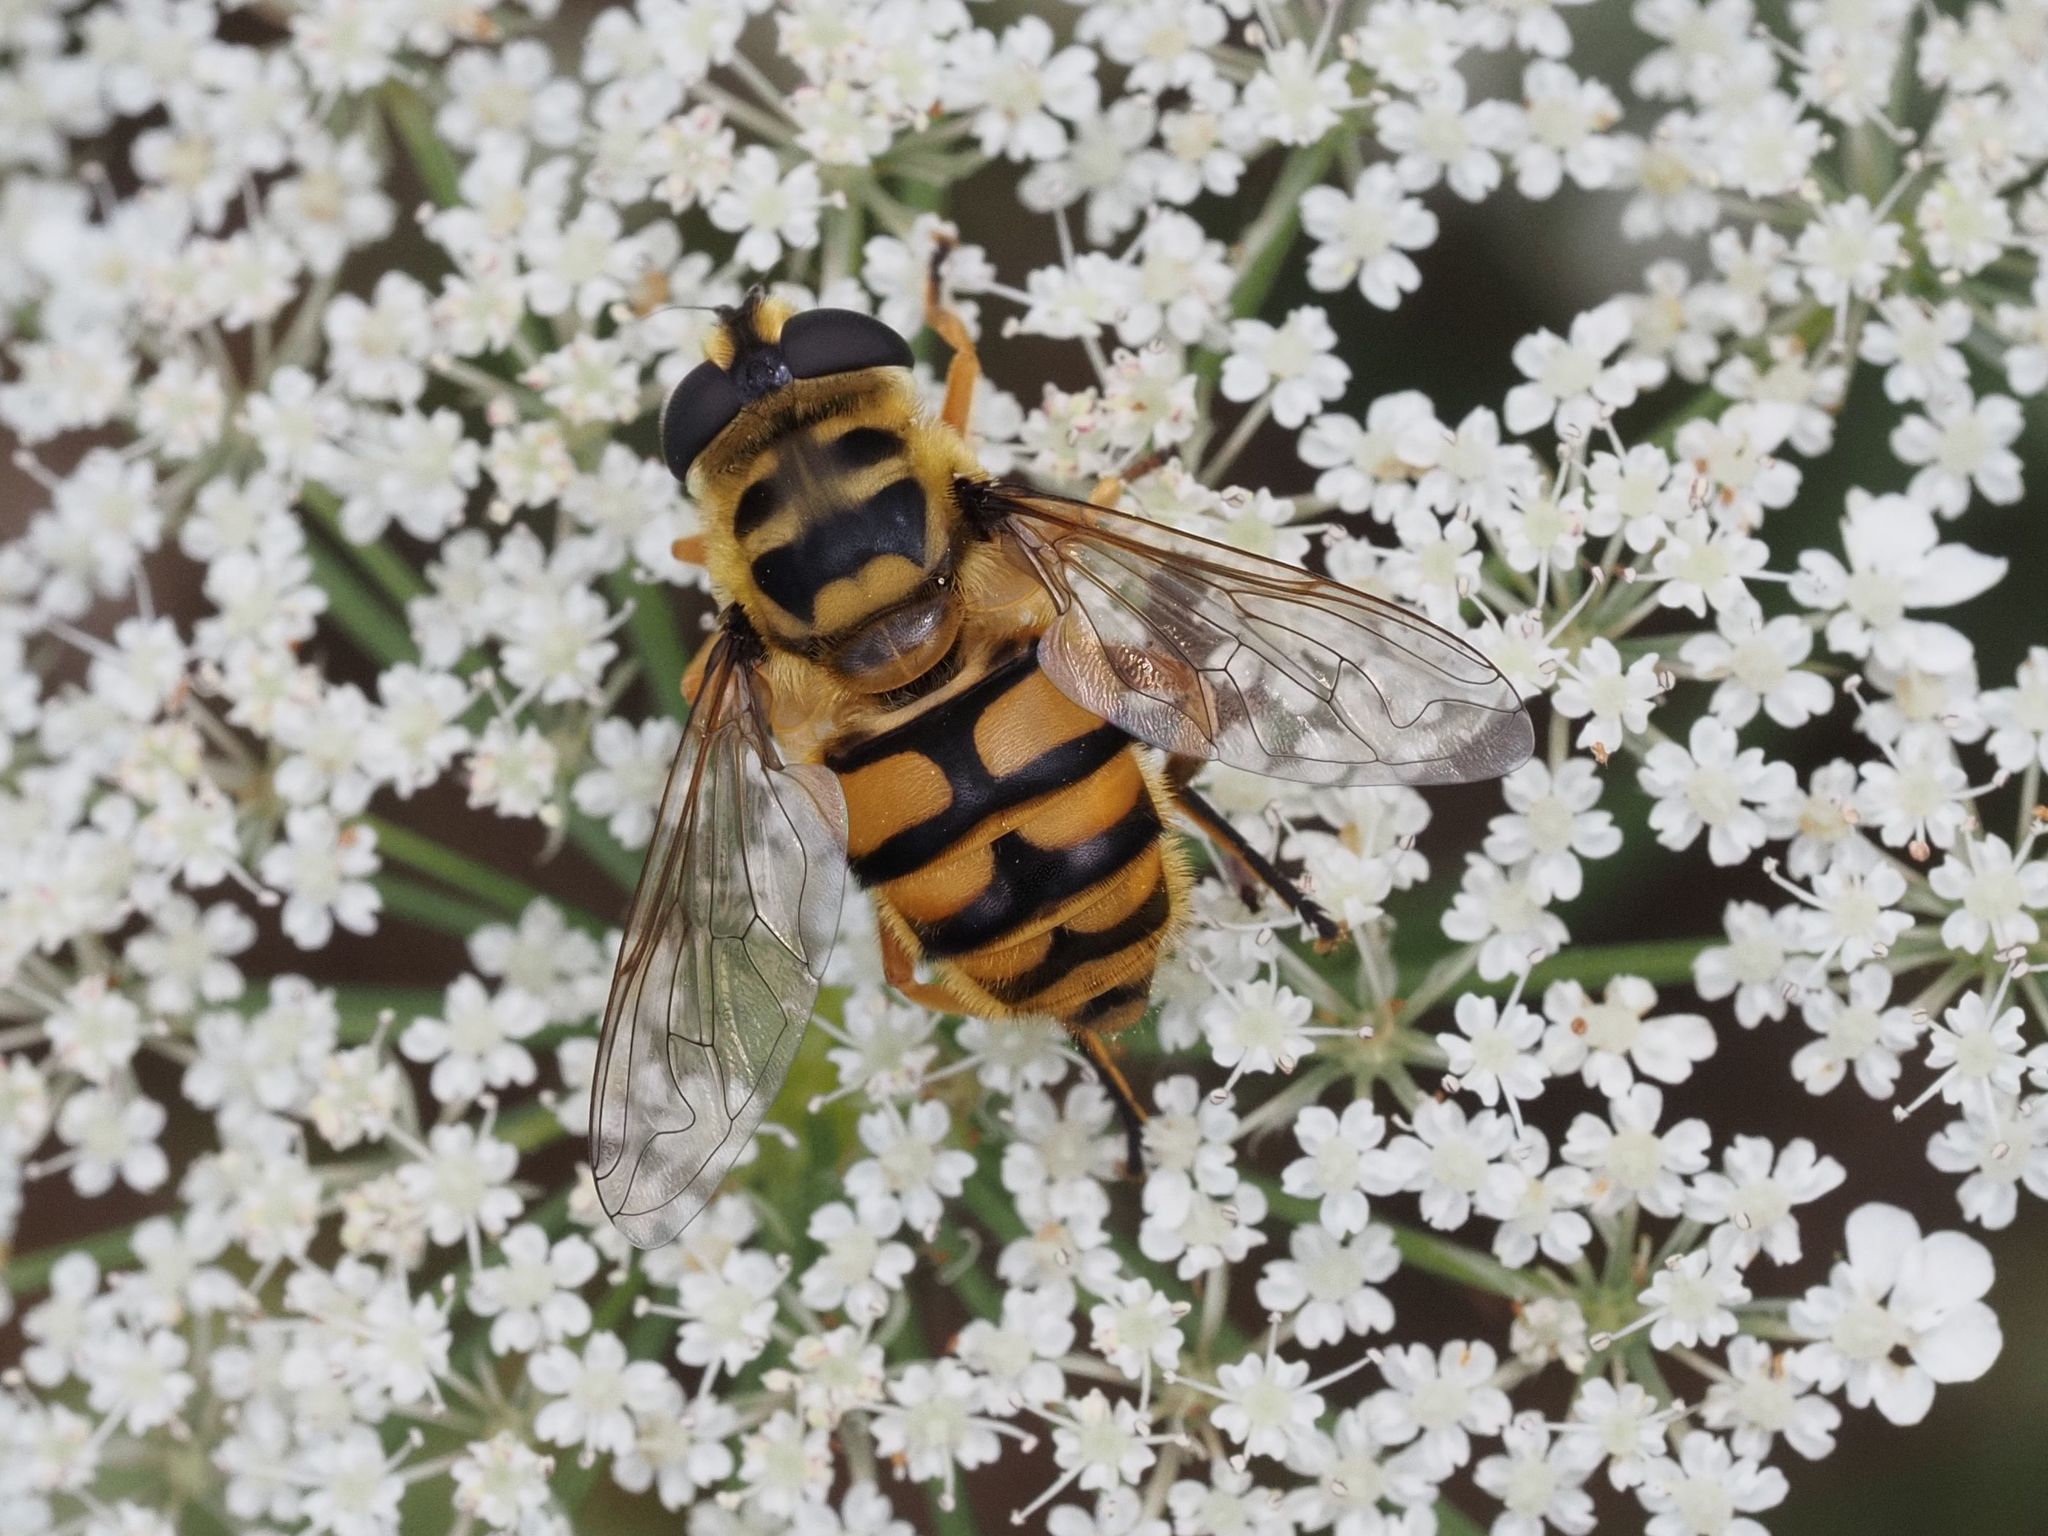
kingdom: Animalia
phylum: Arthropoda
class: Insecta
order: Diptera
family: Syrphidae
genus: Myathropa
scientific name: Myathropa florea
